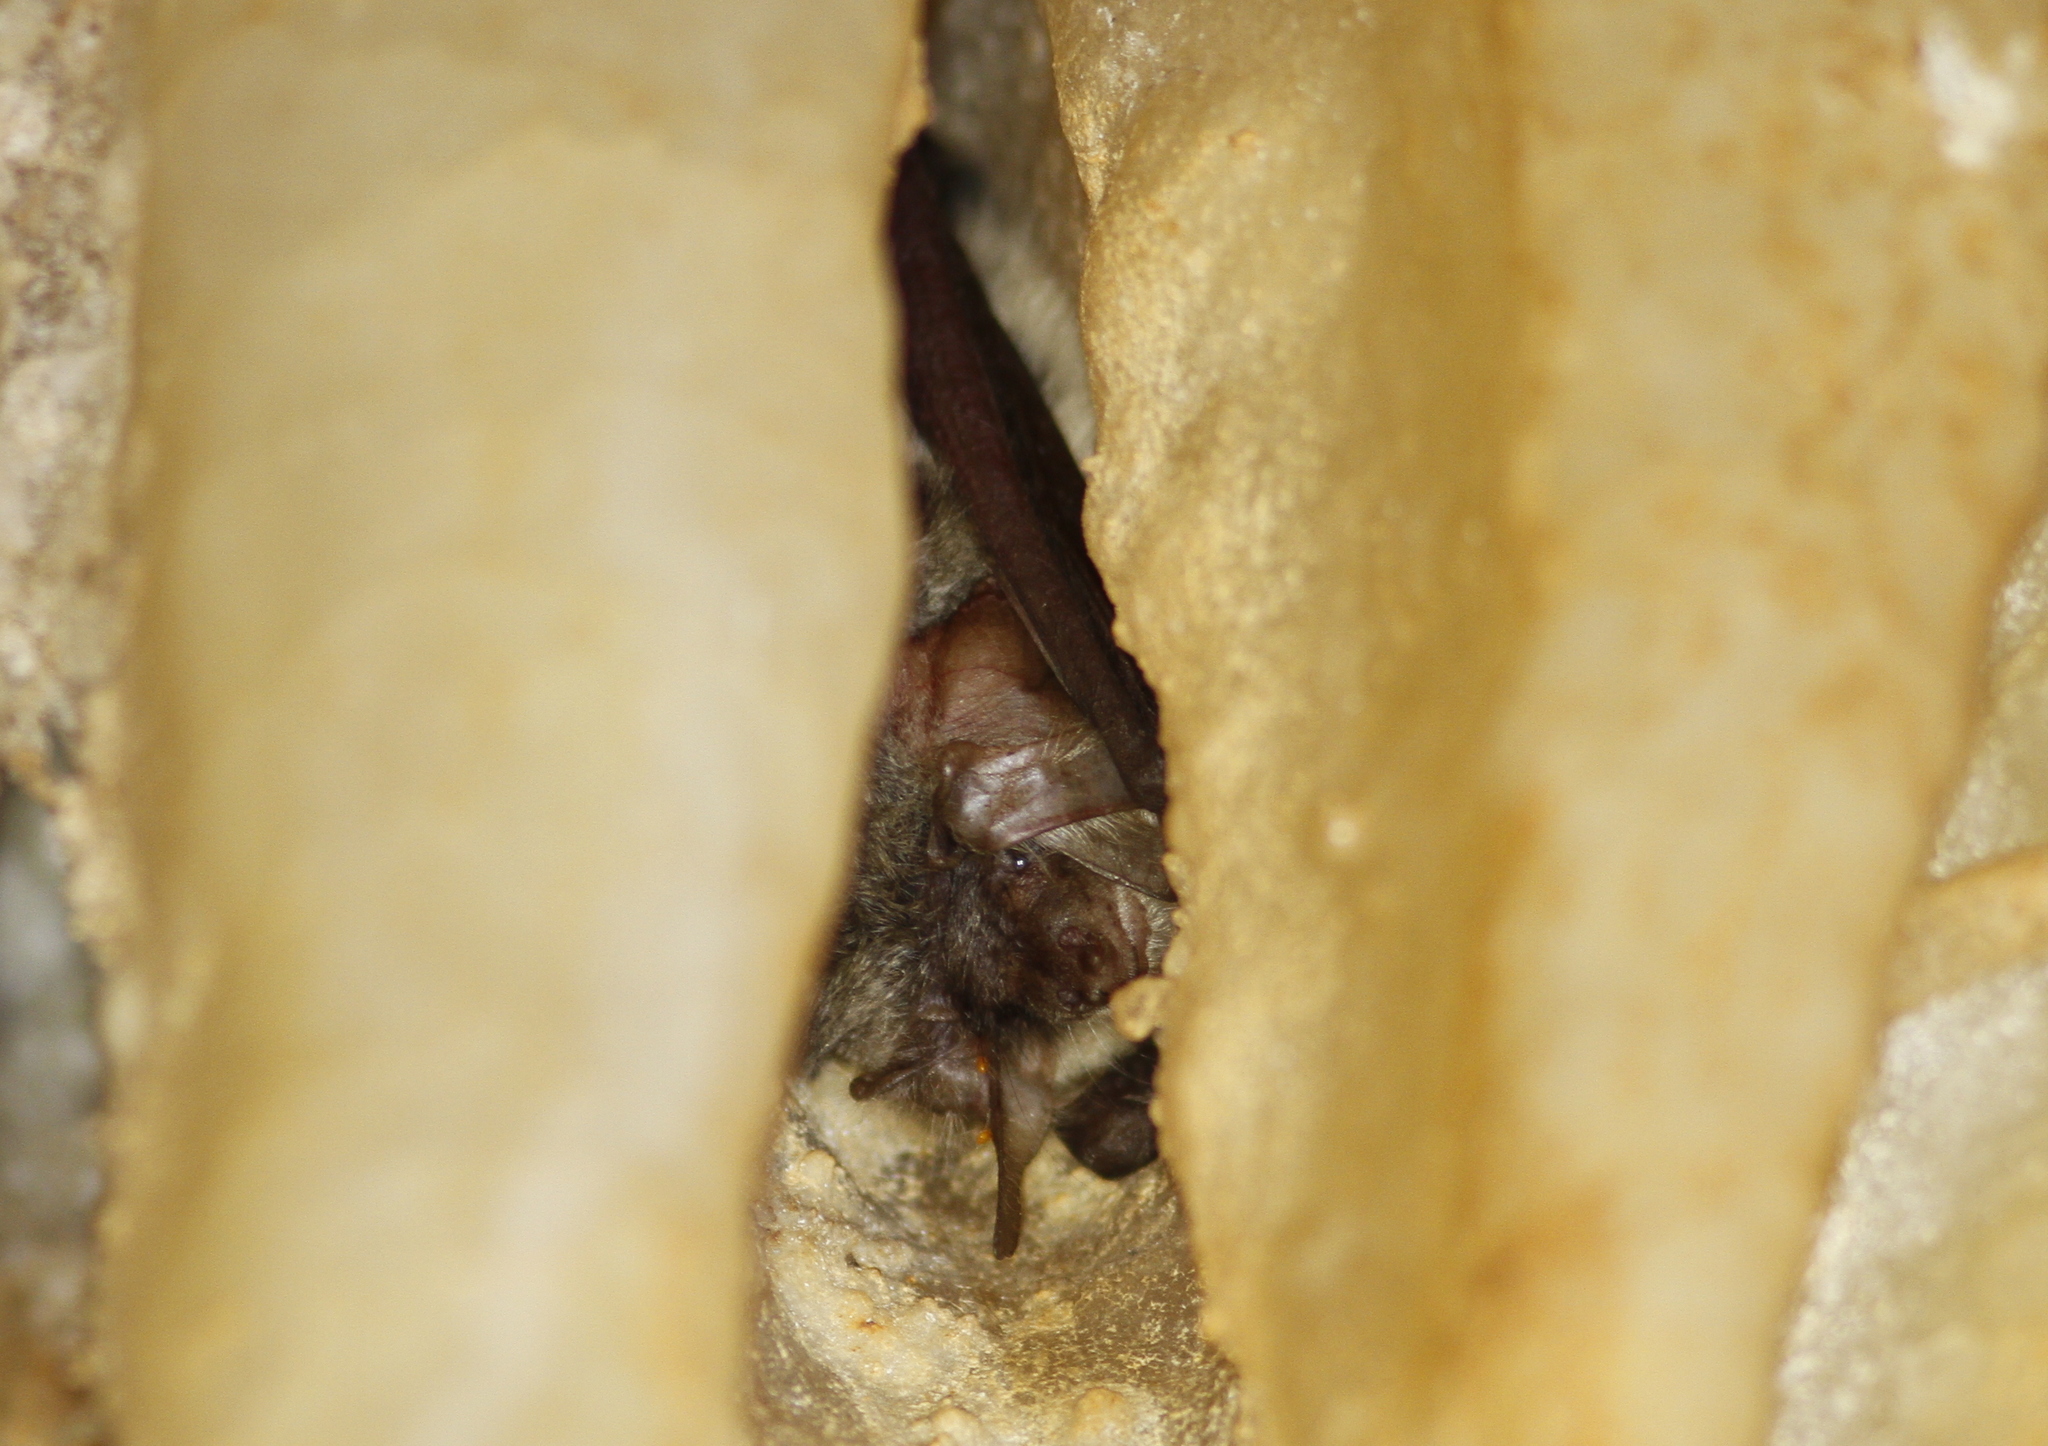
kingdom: Animalia
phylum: Chordata
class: Mammalia
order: Chiroptera
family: Vespertilionidae
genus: Plecotus
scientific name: Plecotus austriacus
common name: Grey long-eared bat
